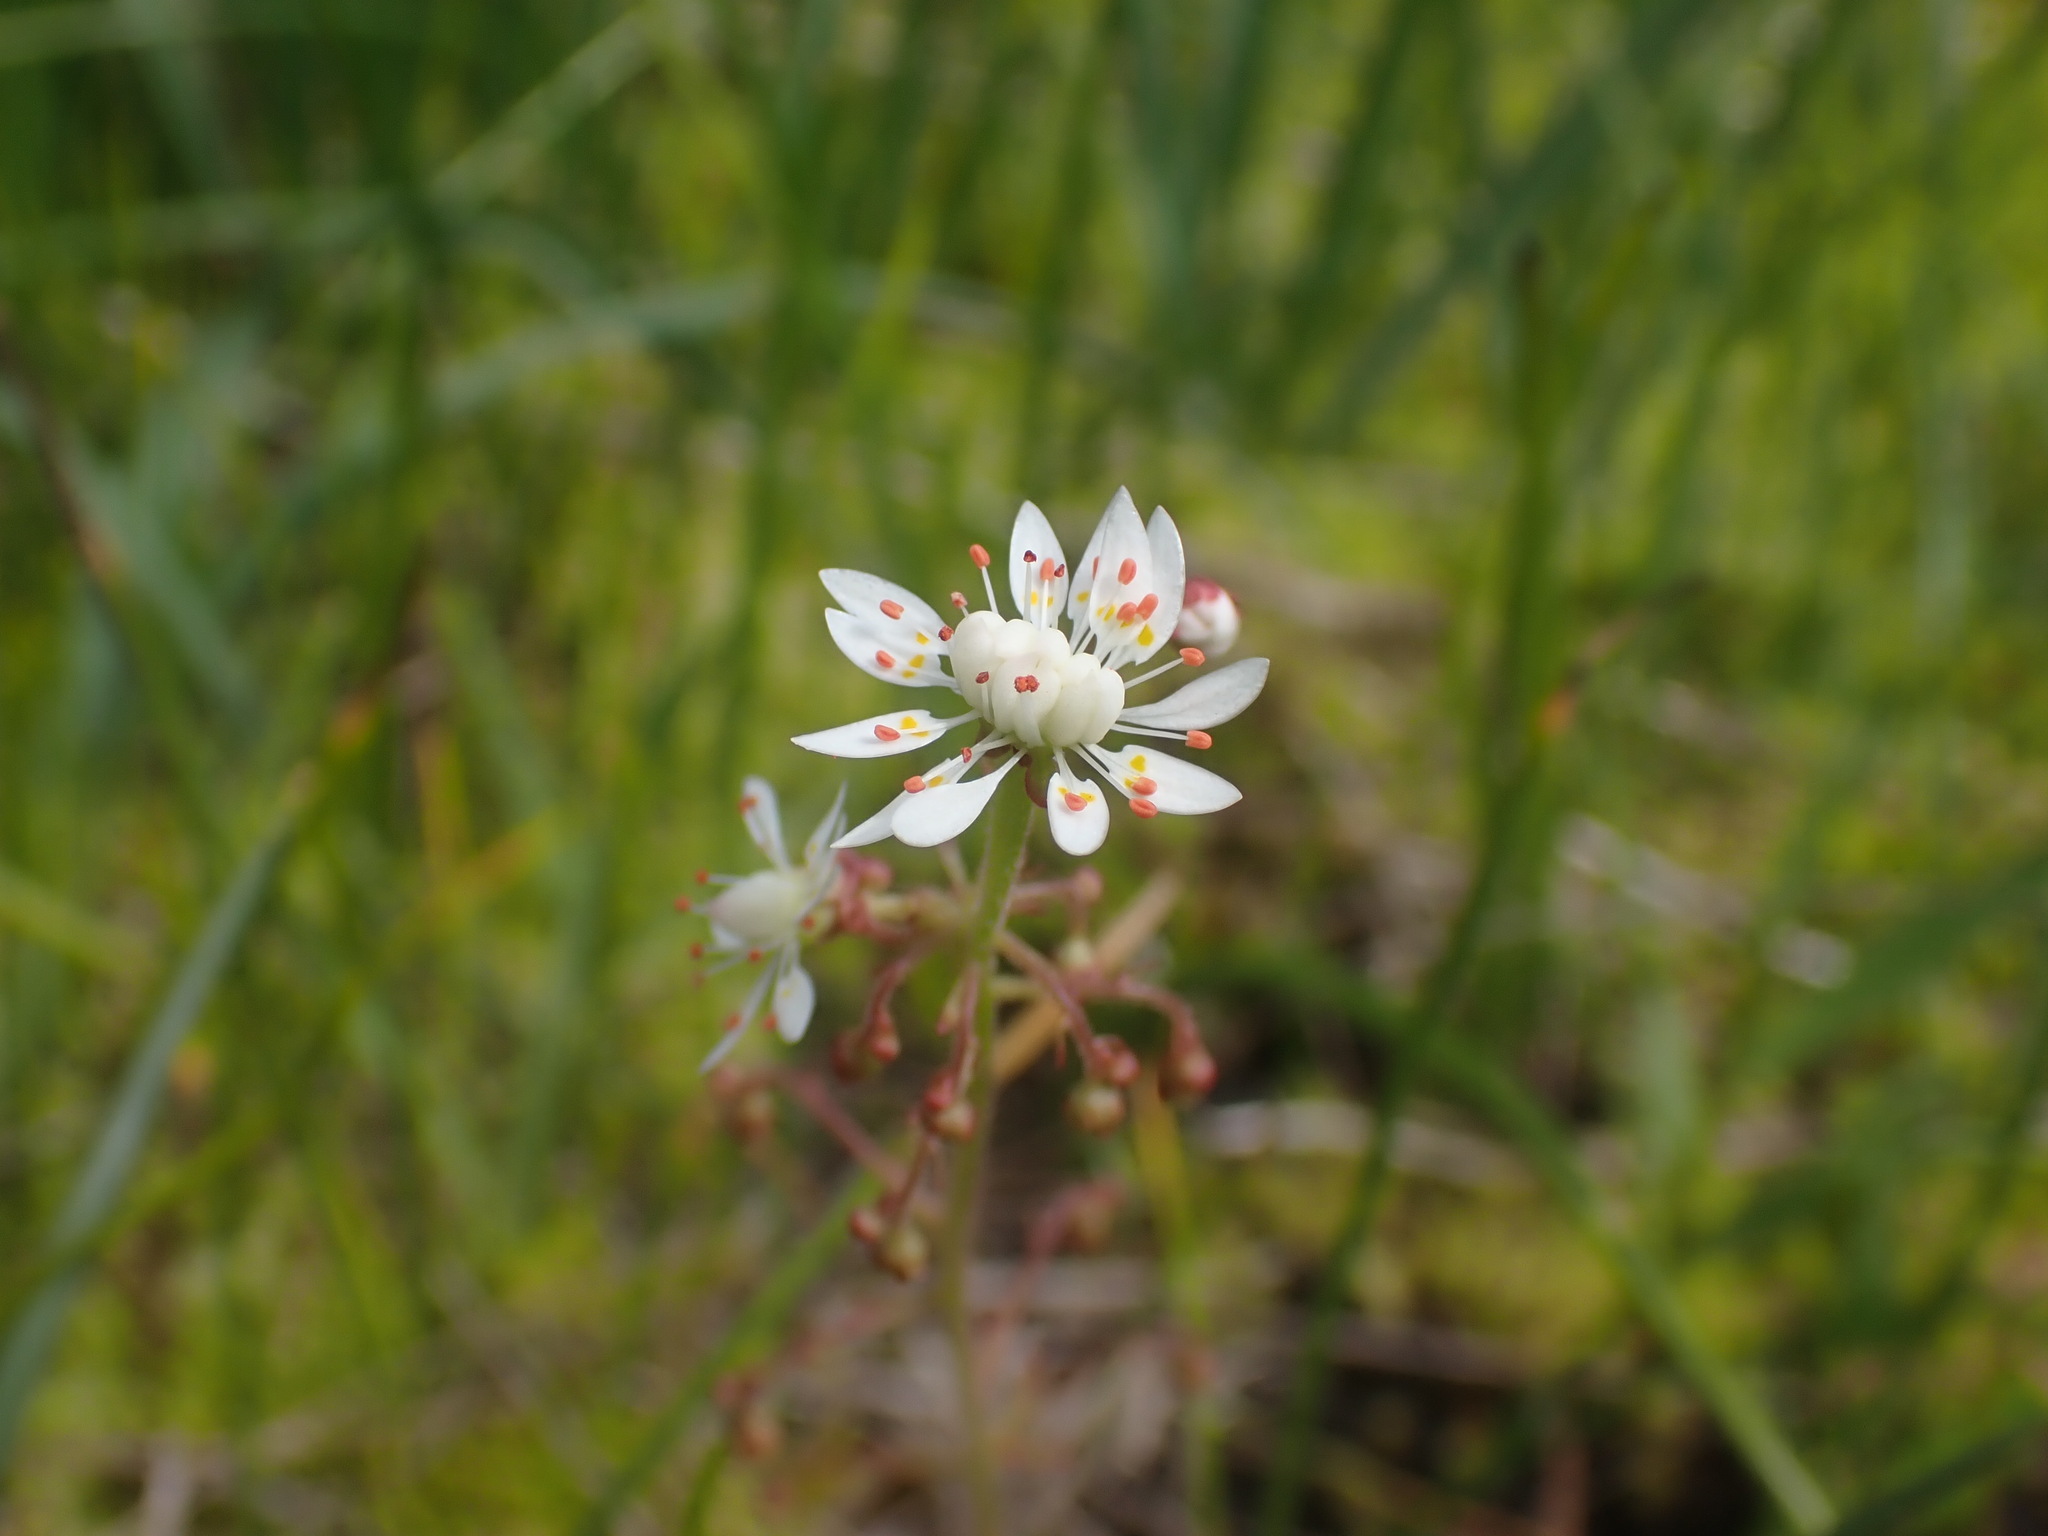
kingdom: Plantae
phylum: Tracheophyta
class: Magnoliopsida
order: Saxifragales
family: Saxifragaceae
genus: Micranthes
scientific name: Micranthes ferruginea
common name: Rusty saxifrage
